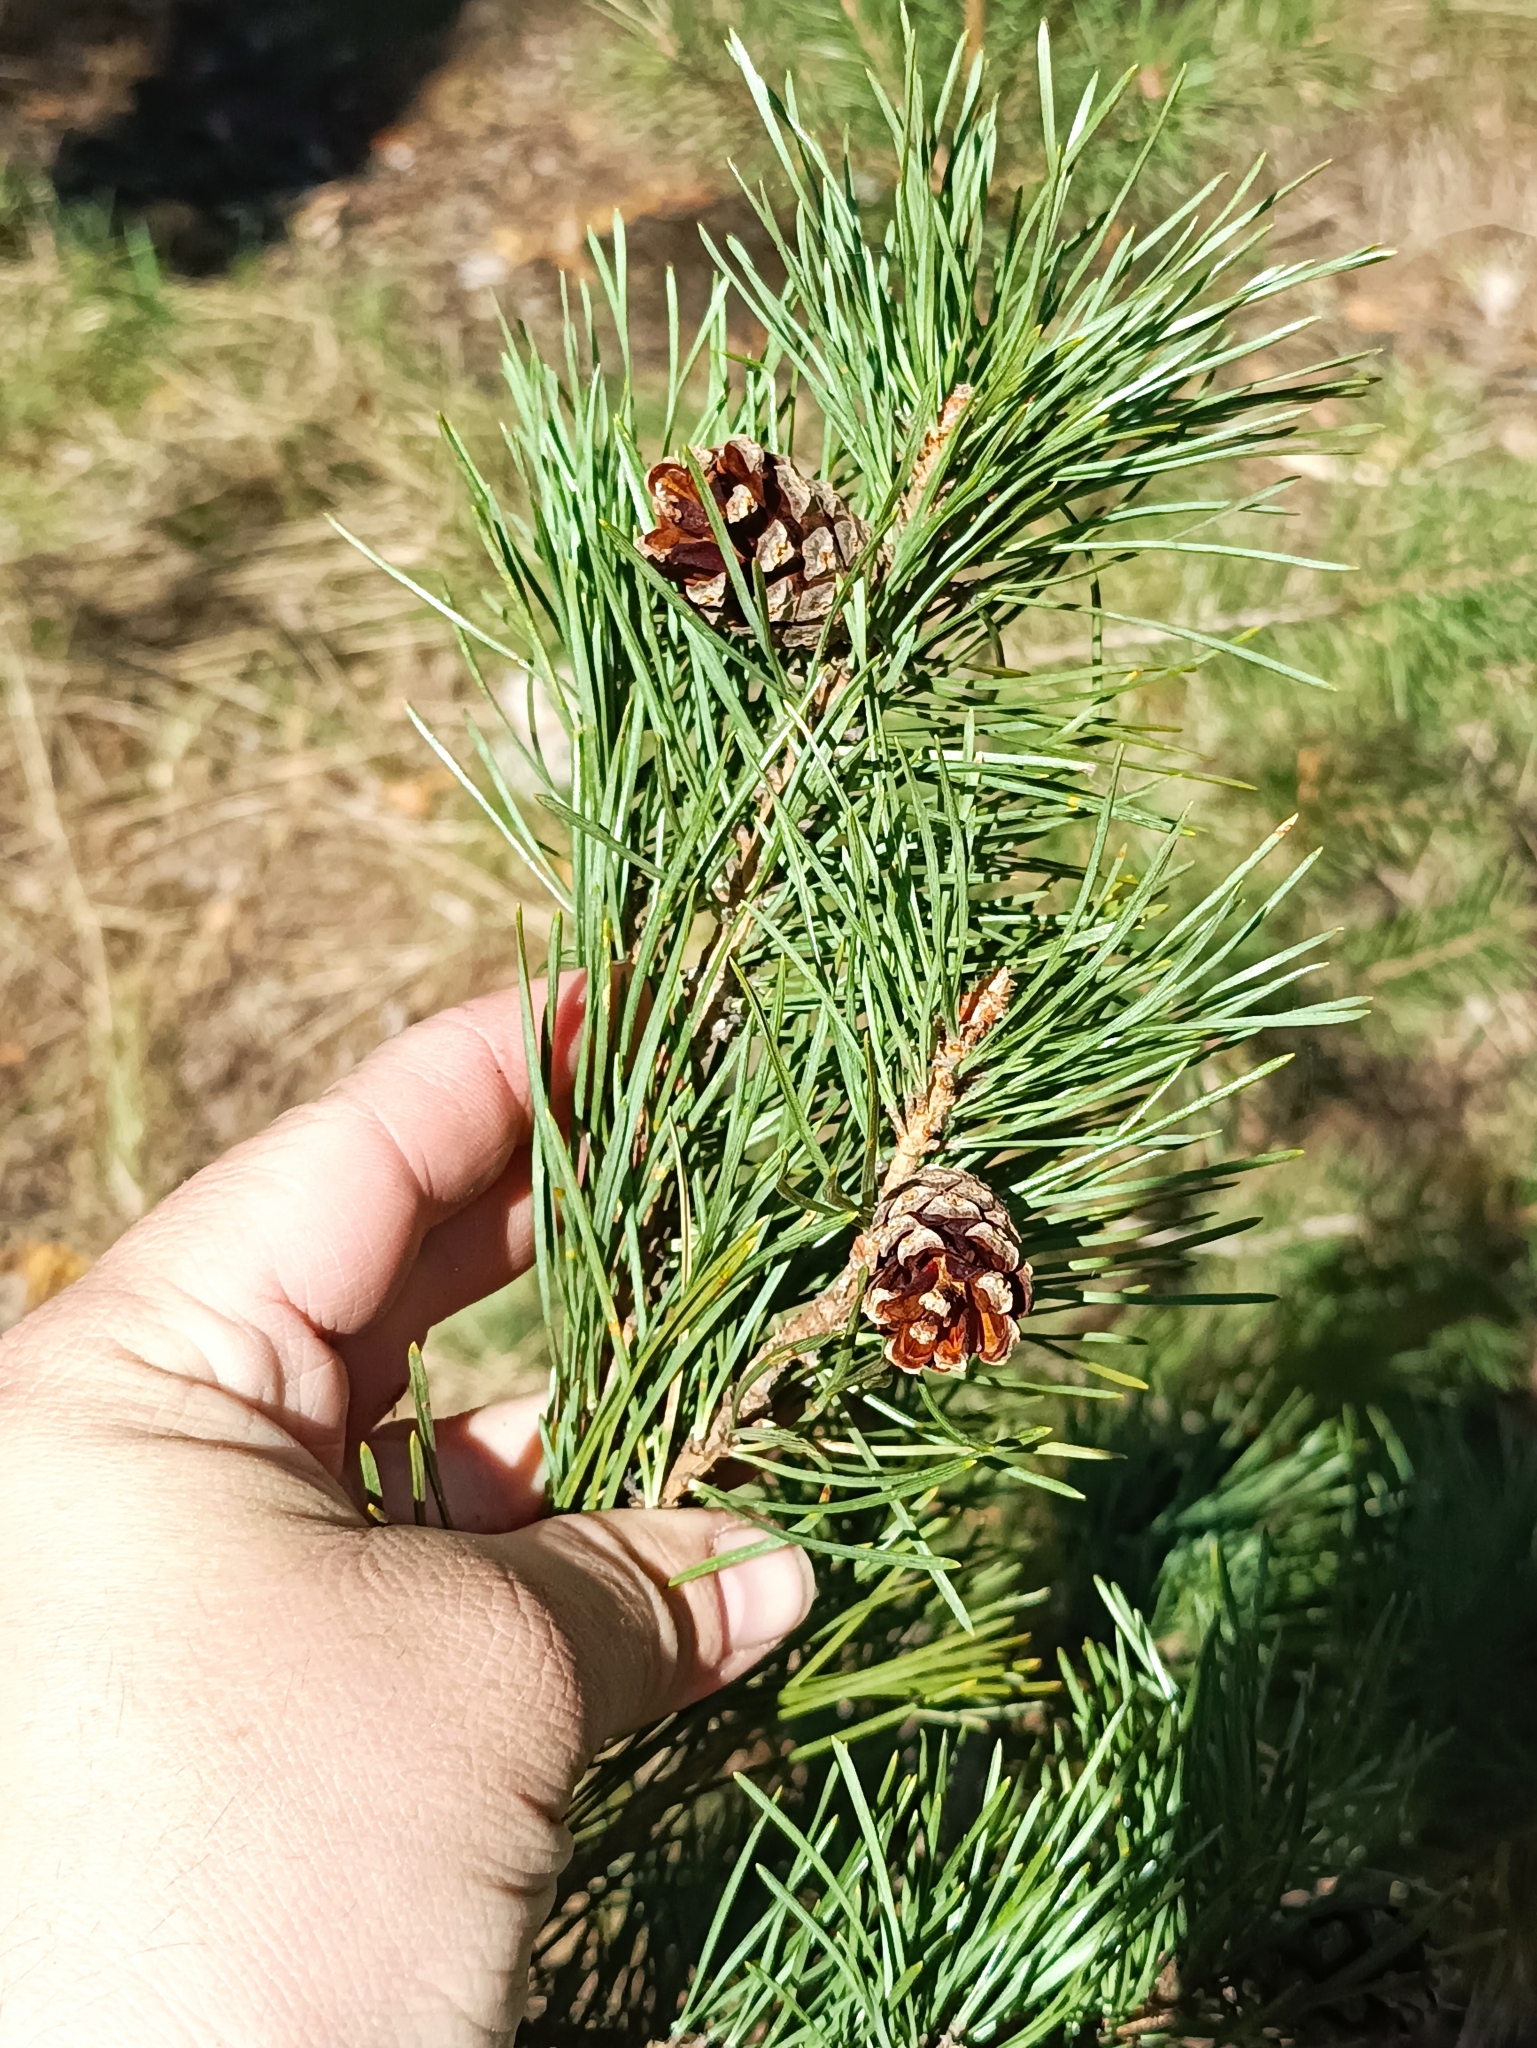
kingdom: Plantae
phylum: Tracheophyta
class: Pinopsida
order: Pinales
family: Pinaceae
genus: Pinus
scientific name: Pinus sylvestris
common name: Scots pine
